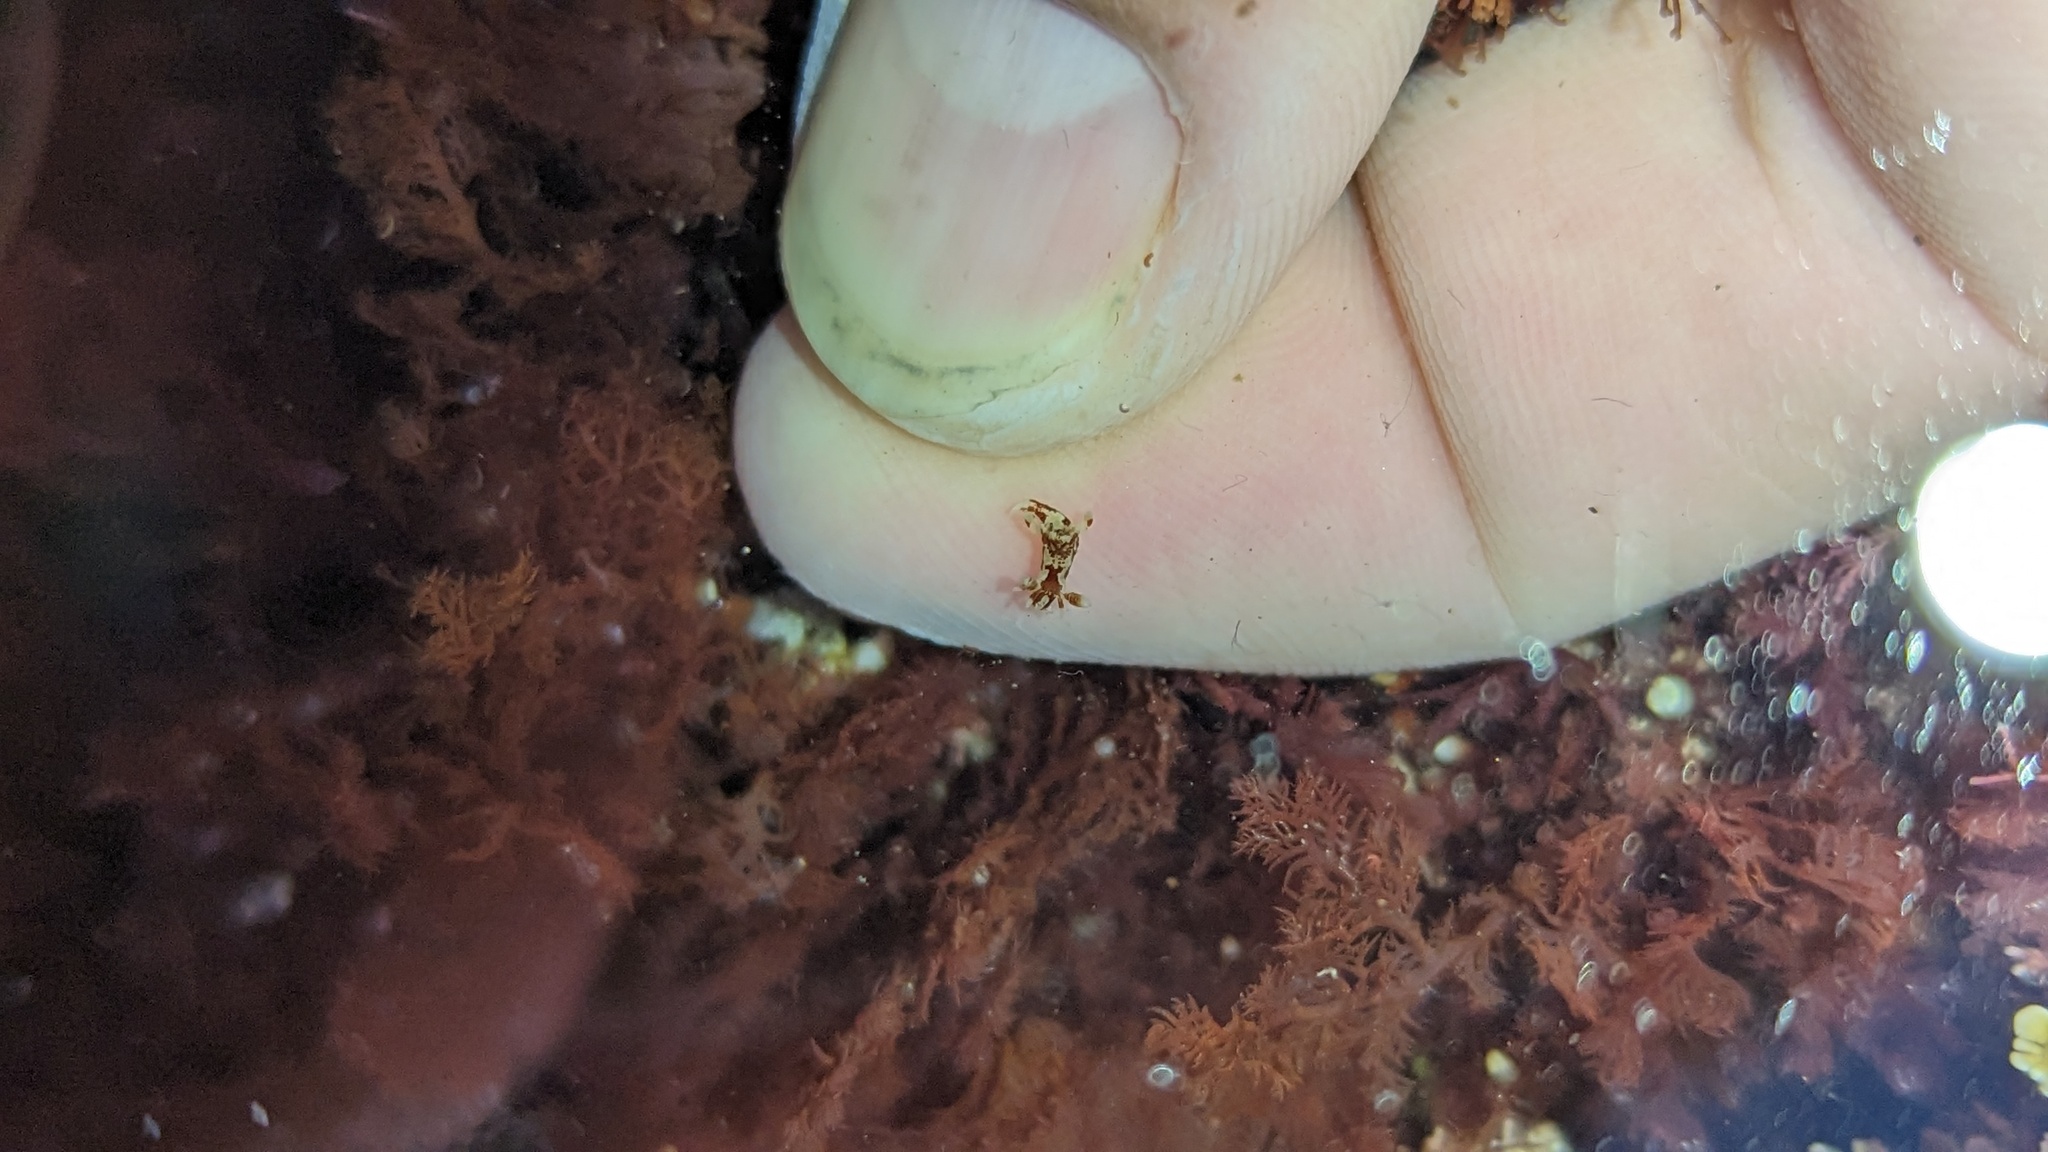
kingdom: Animalia
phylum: Mollusca
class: Gastropoda
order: Nudibranchia
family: Goniodorididae
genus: Ancula
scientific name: Ancula lentiginosa
